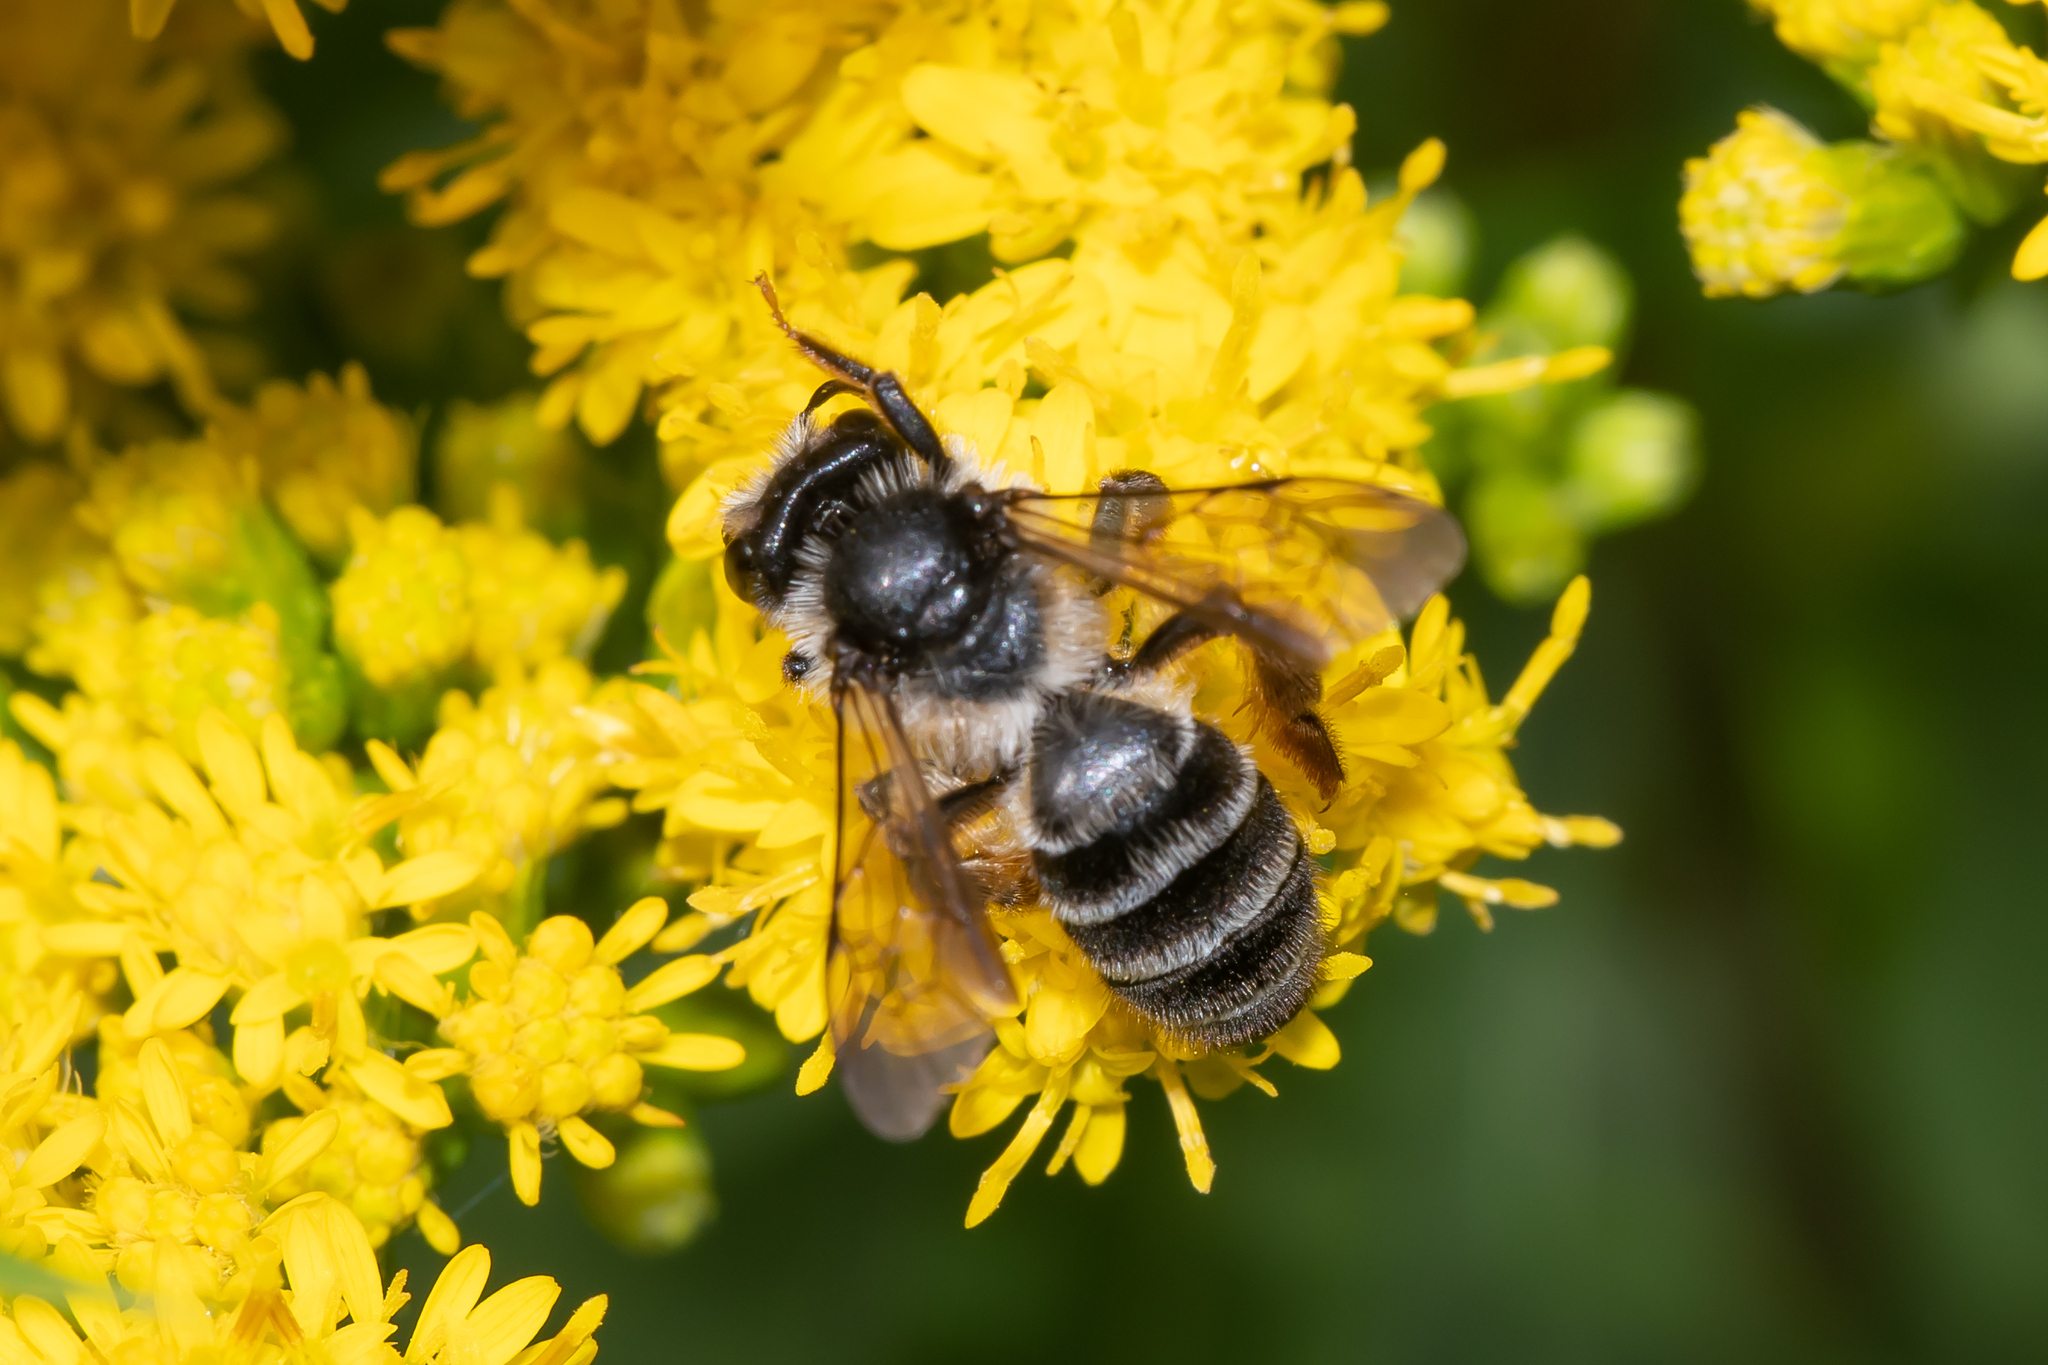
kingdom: Animalia
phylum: Arthropoda
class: Insecta
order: Hymenoptera
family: Andrenidae
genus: Andrena
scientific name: Andrena denticulata
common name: Grey-banded mining bee
